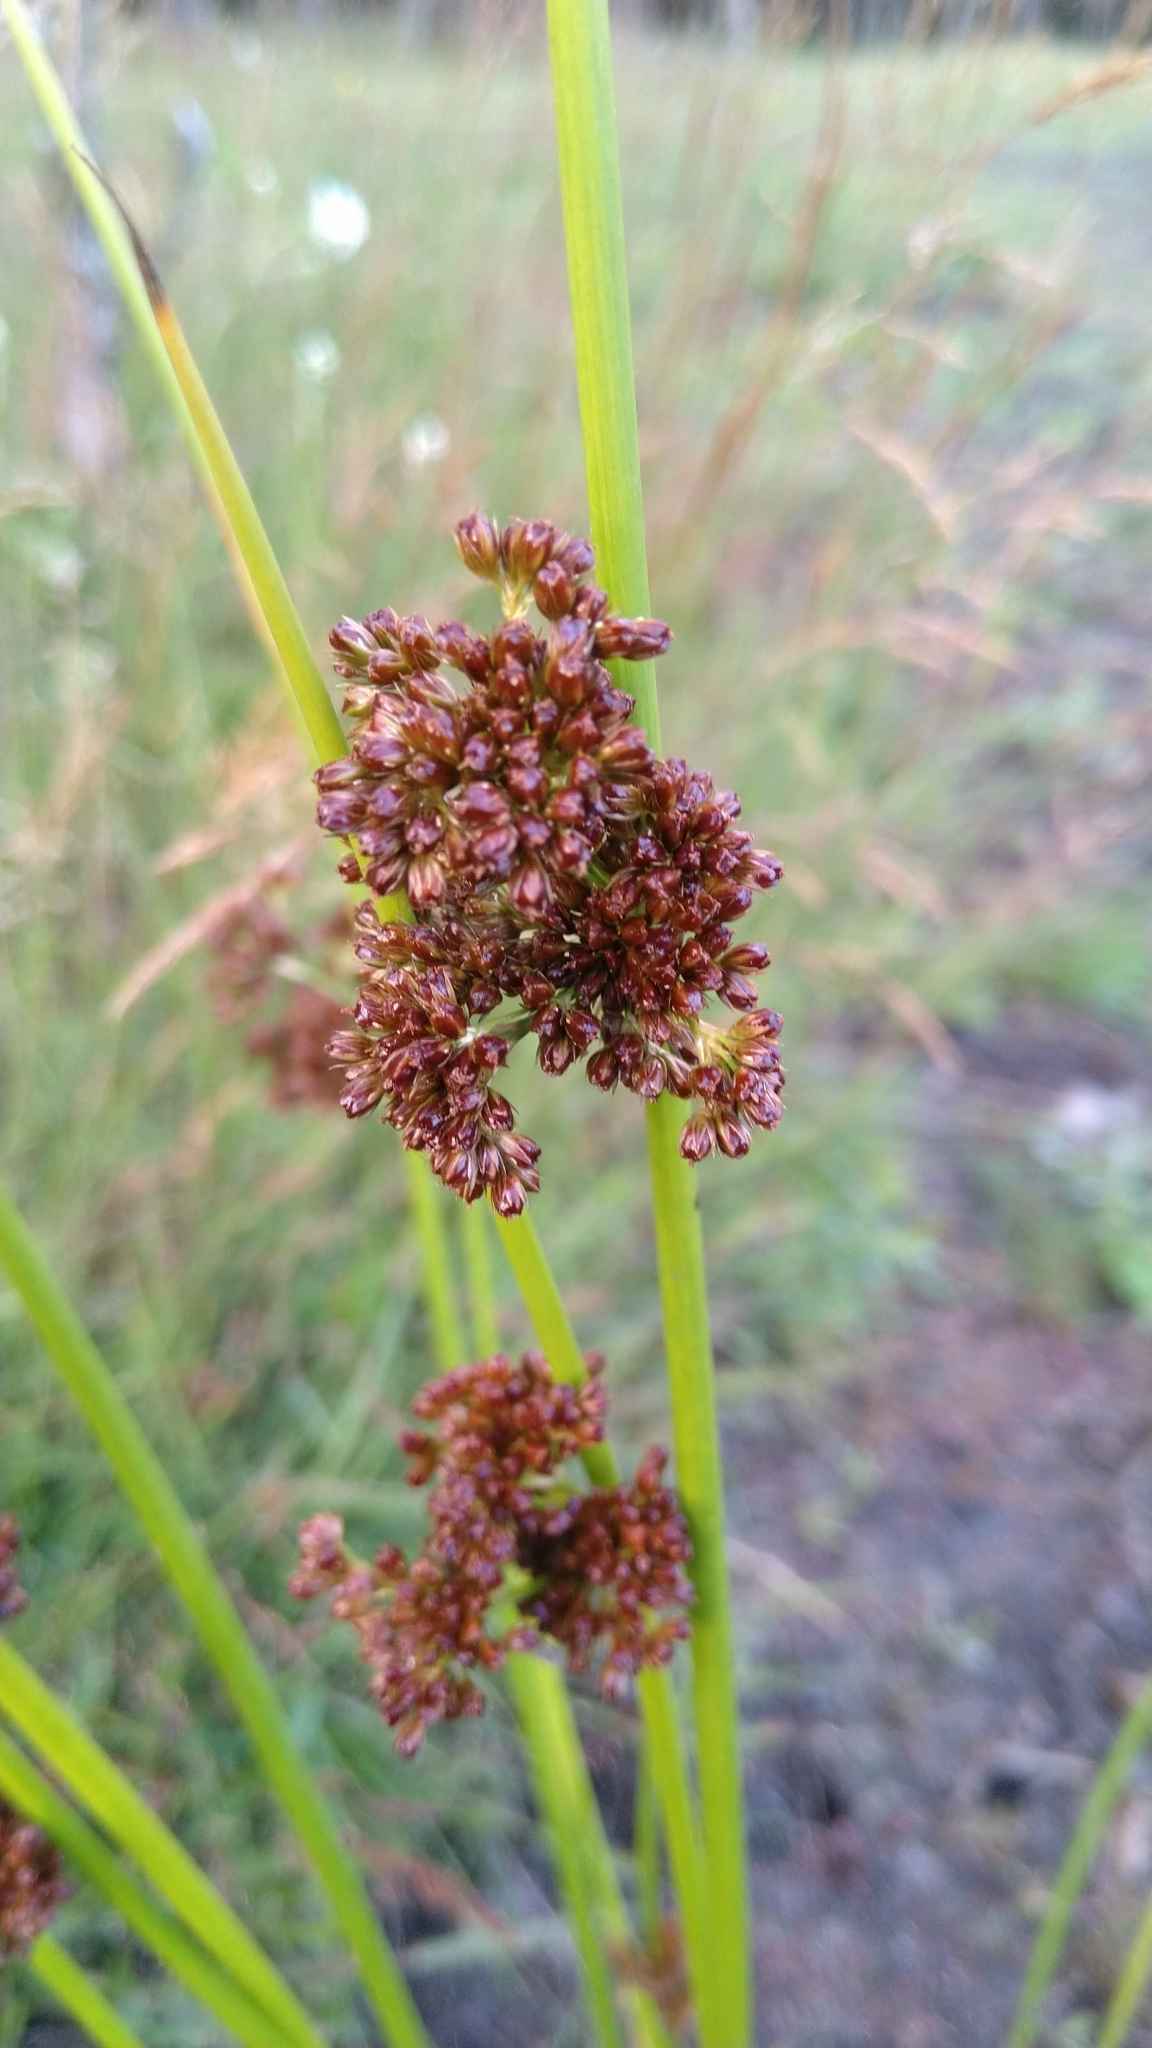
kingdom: Plantae
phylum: Tracheophyta
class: Liliopsida
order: Poales
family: Juncaceae
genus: Juncus
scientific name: Juncus effusus
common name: Soft rush
